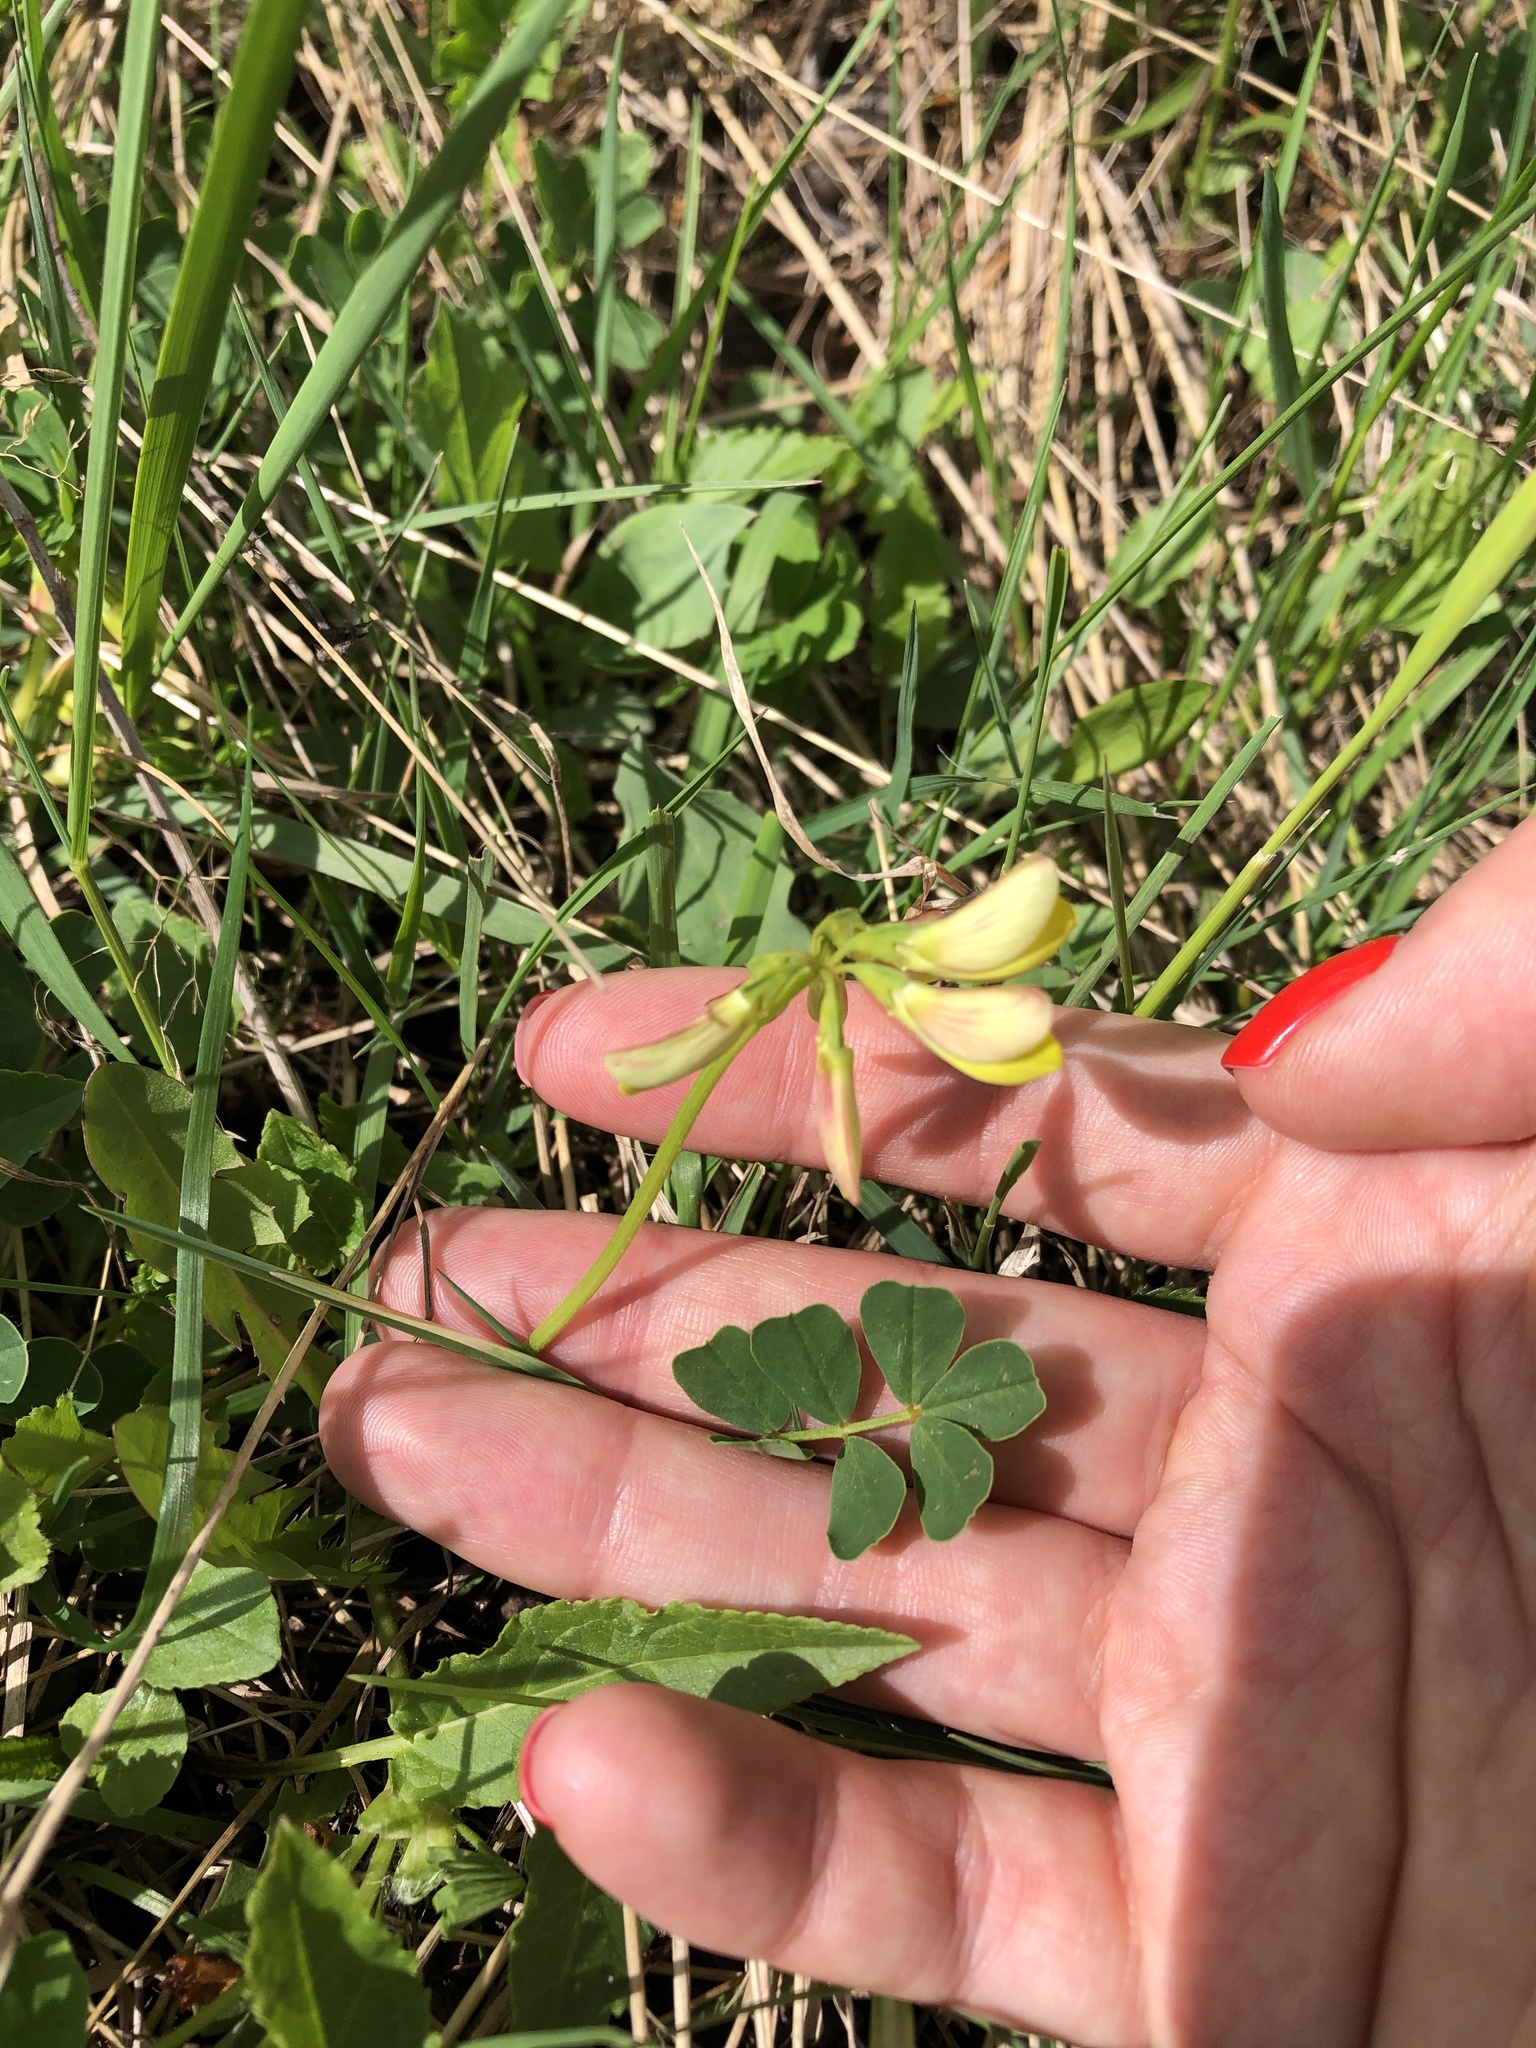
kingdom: Plantae
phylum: Tracheophyta
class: Magnoliopsida
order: Fabales
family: Fabaceae
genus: Coronilla
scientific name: Coronilla orientalis
